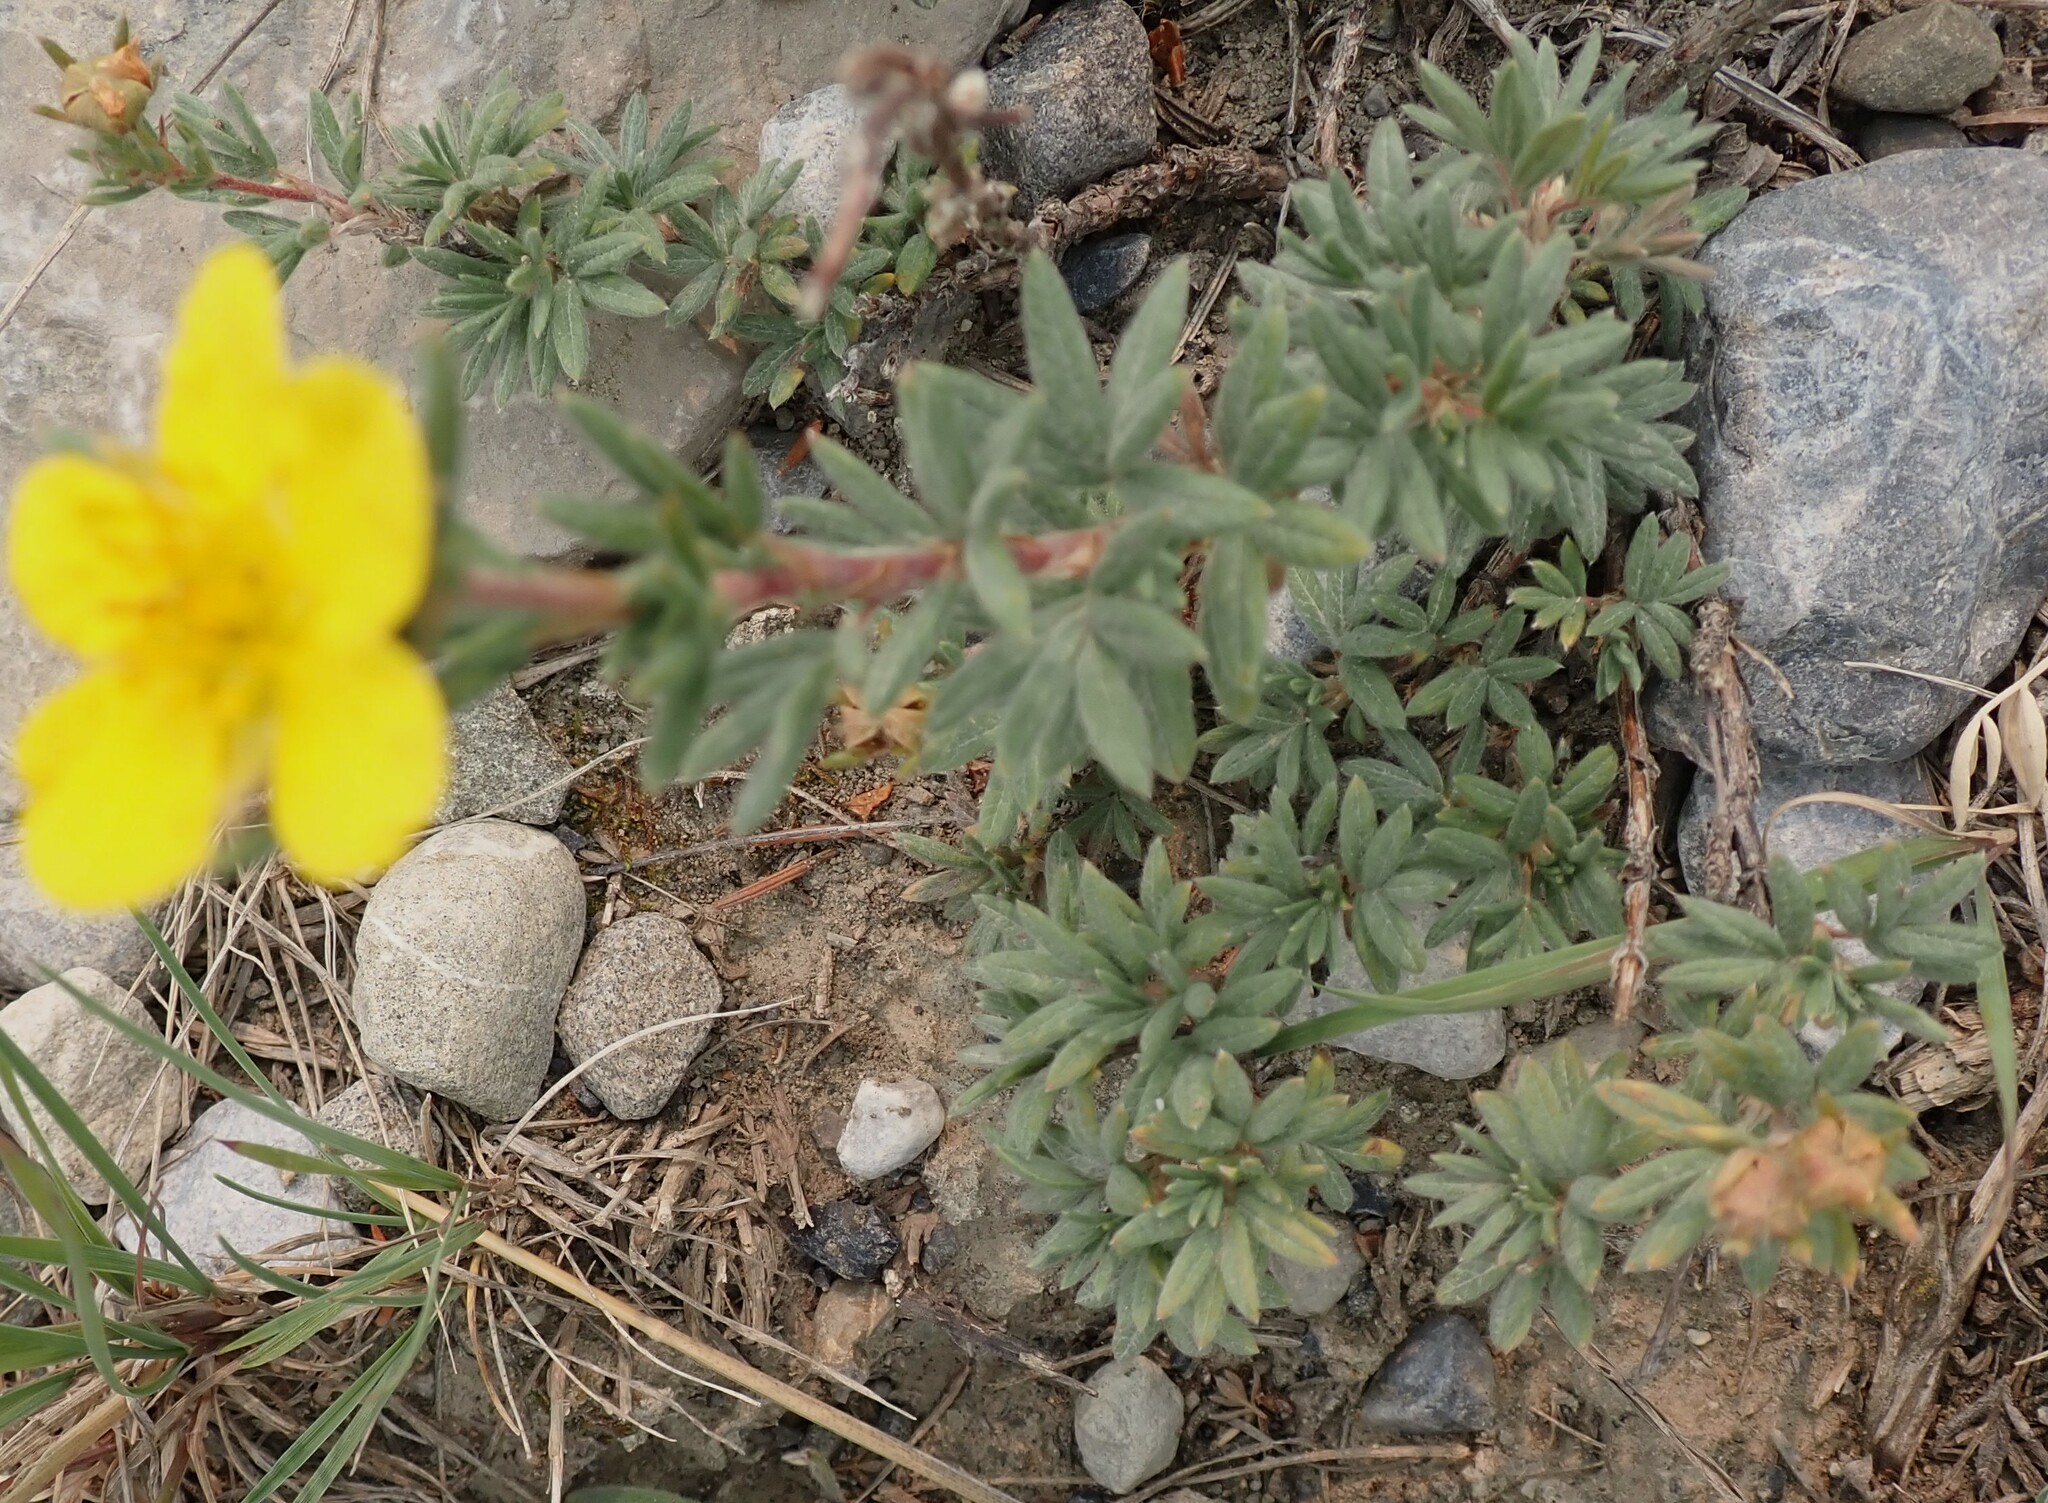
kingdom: Plantae
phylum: Tracheophyta
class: Magnoliopsida
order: Rosales
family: Rosaceae
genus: Dasiphora
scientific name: Dasiphora fruticosa
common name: Shrubby cinquefoil
